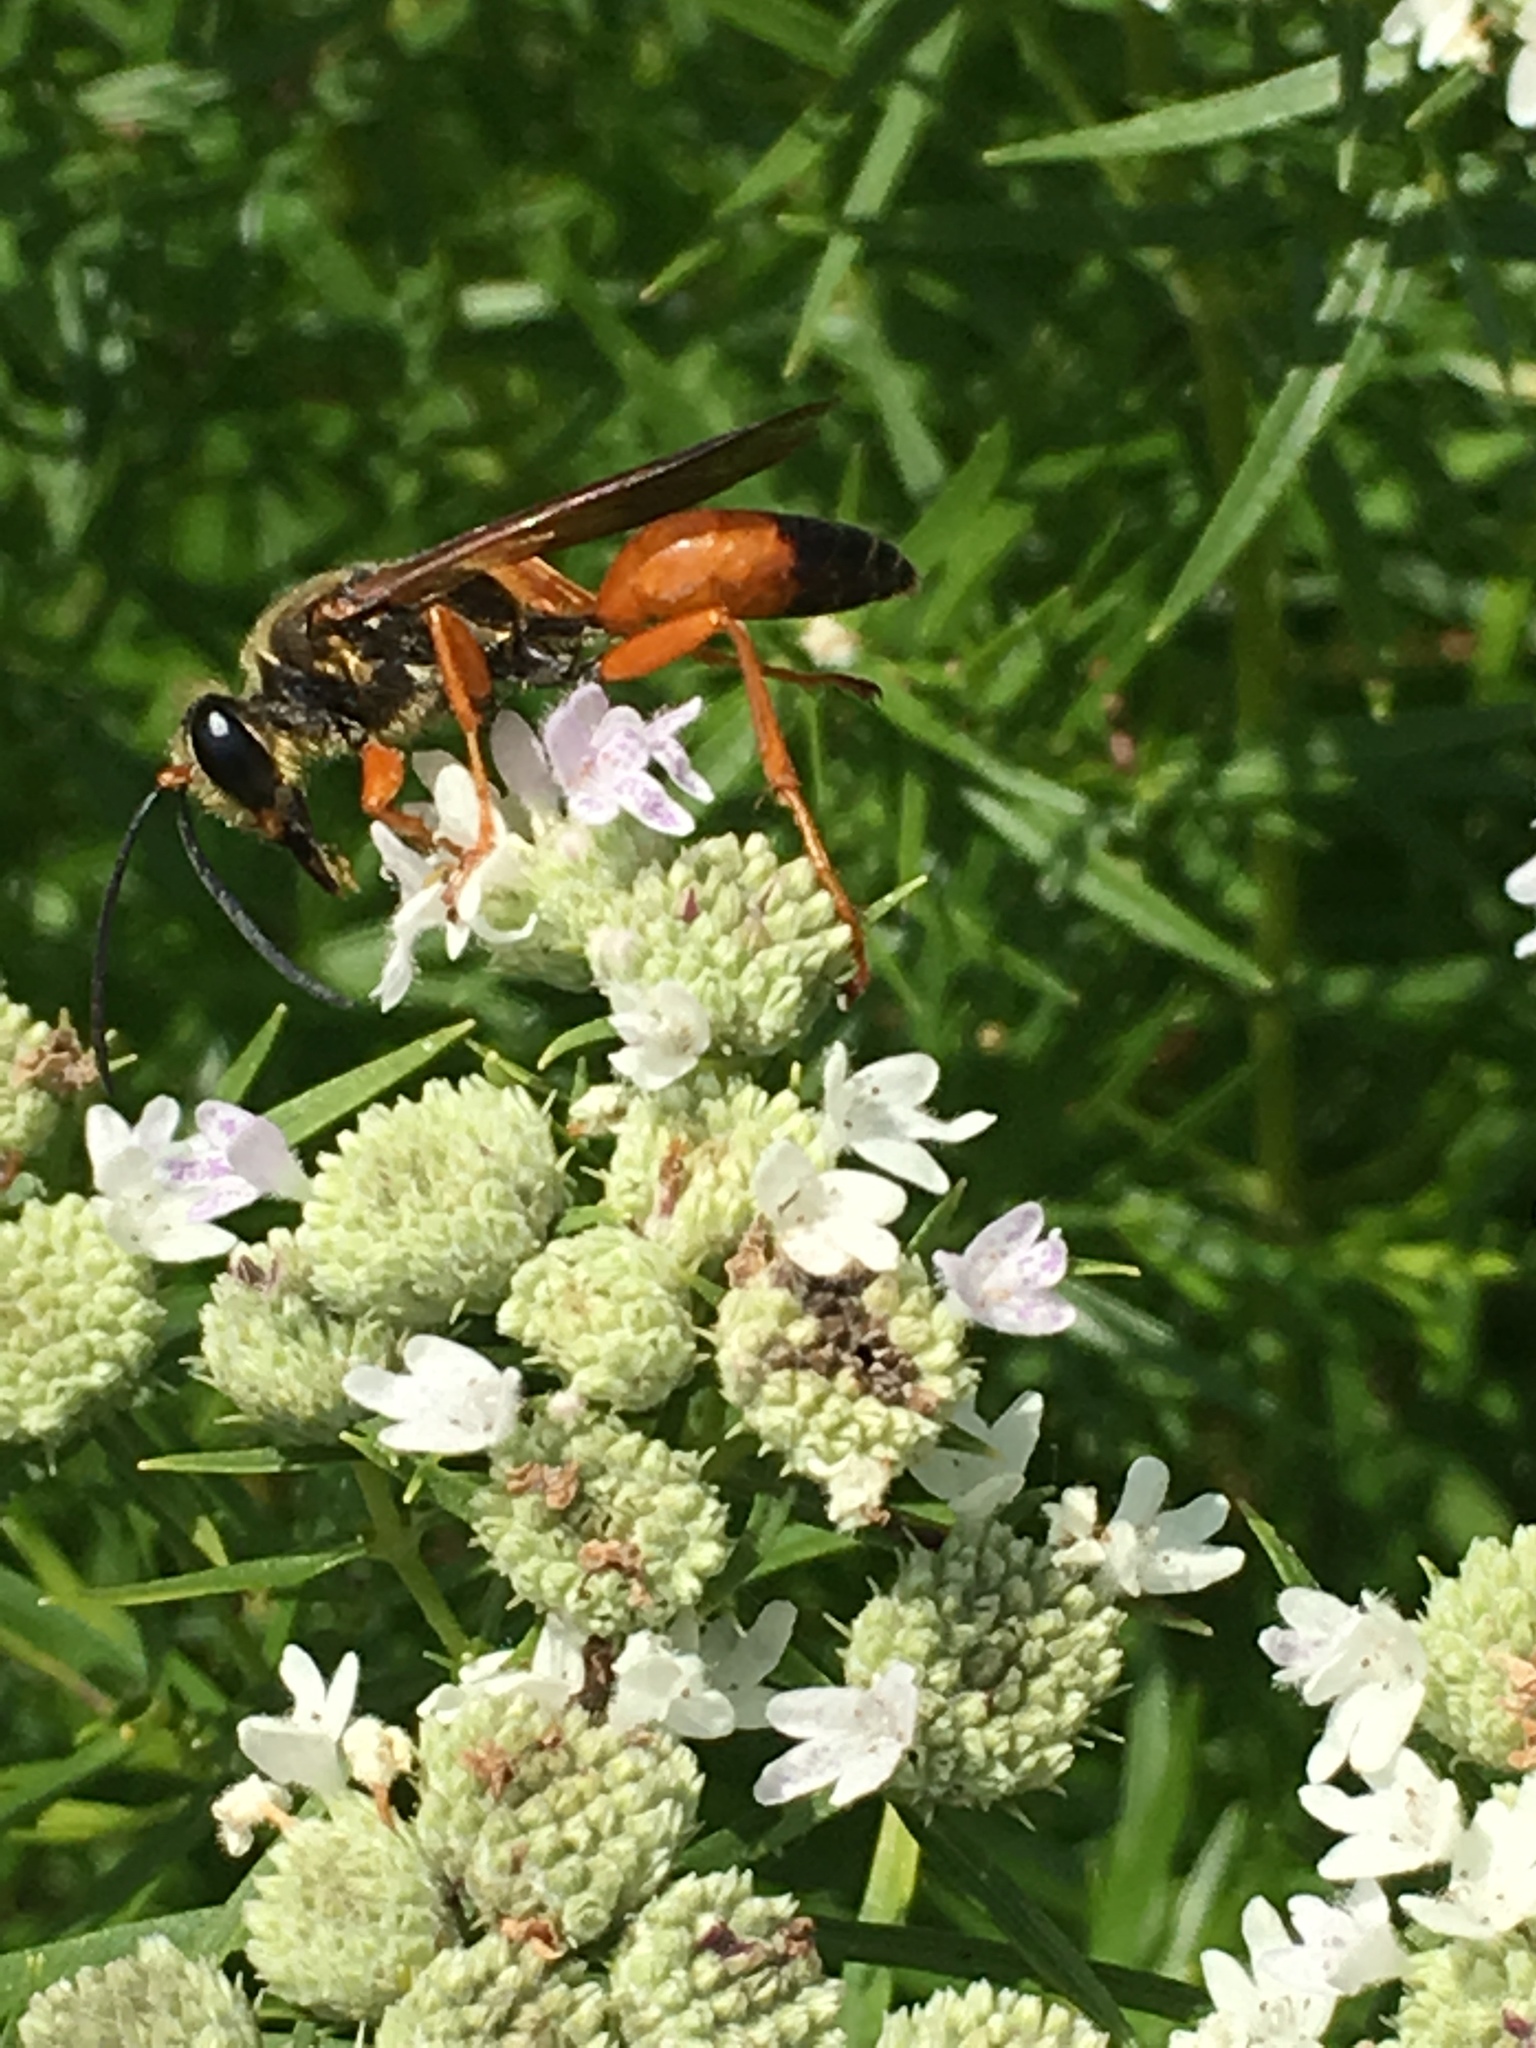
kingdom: Animalia
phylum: Arthropoda
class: Insecta
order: Hymenoptera
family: Sphecidae
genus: Sphex
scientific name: Sphex ichneumoneus
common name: Great golden digger wasp
